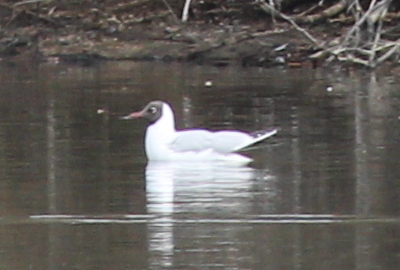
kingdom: Animalia
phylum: Chordata
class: Aves
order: Charadriiformes
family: Laridae
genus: Chroicocephalus
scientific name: Chroicocephalus ridibundus
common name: Black-headed gull
